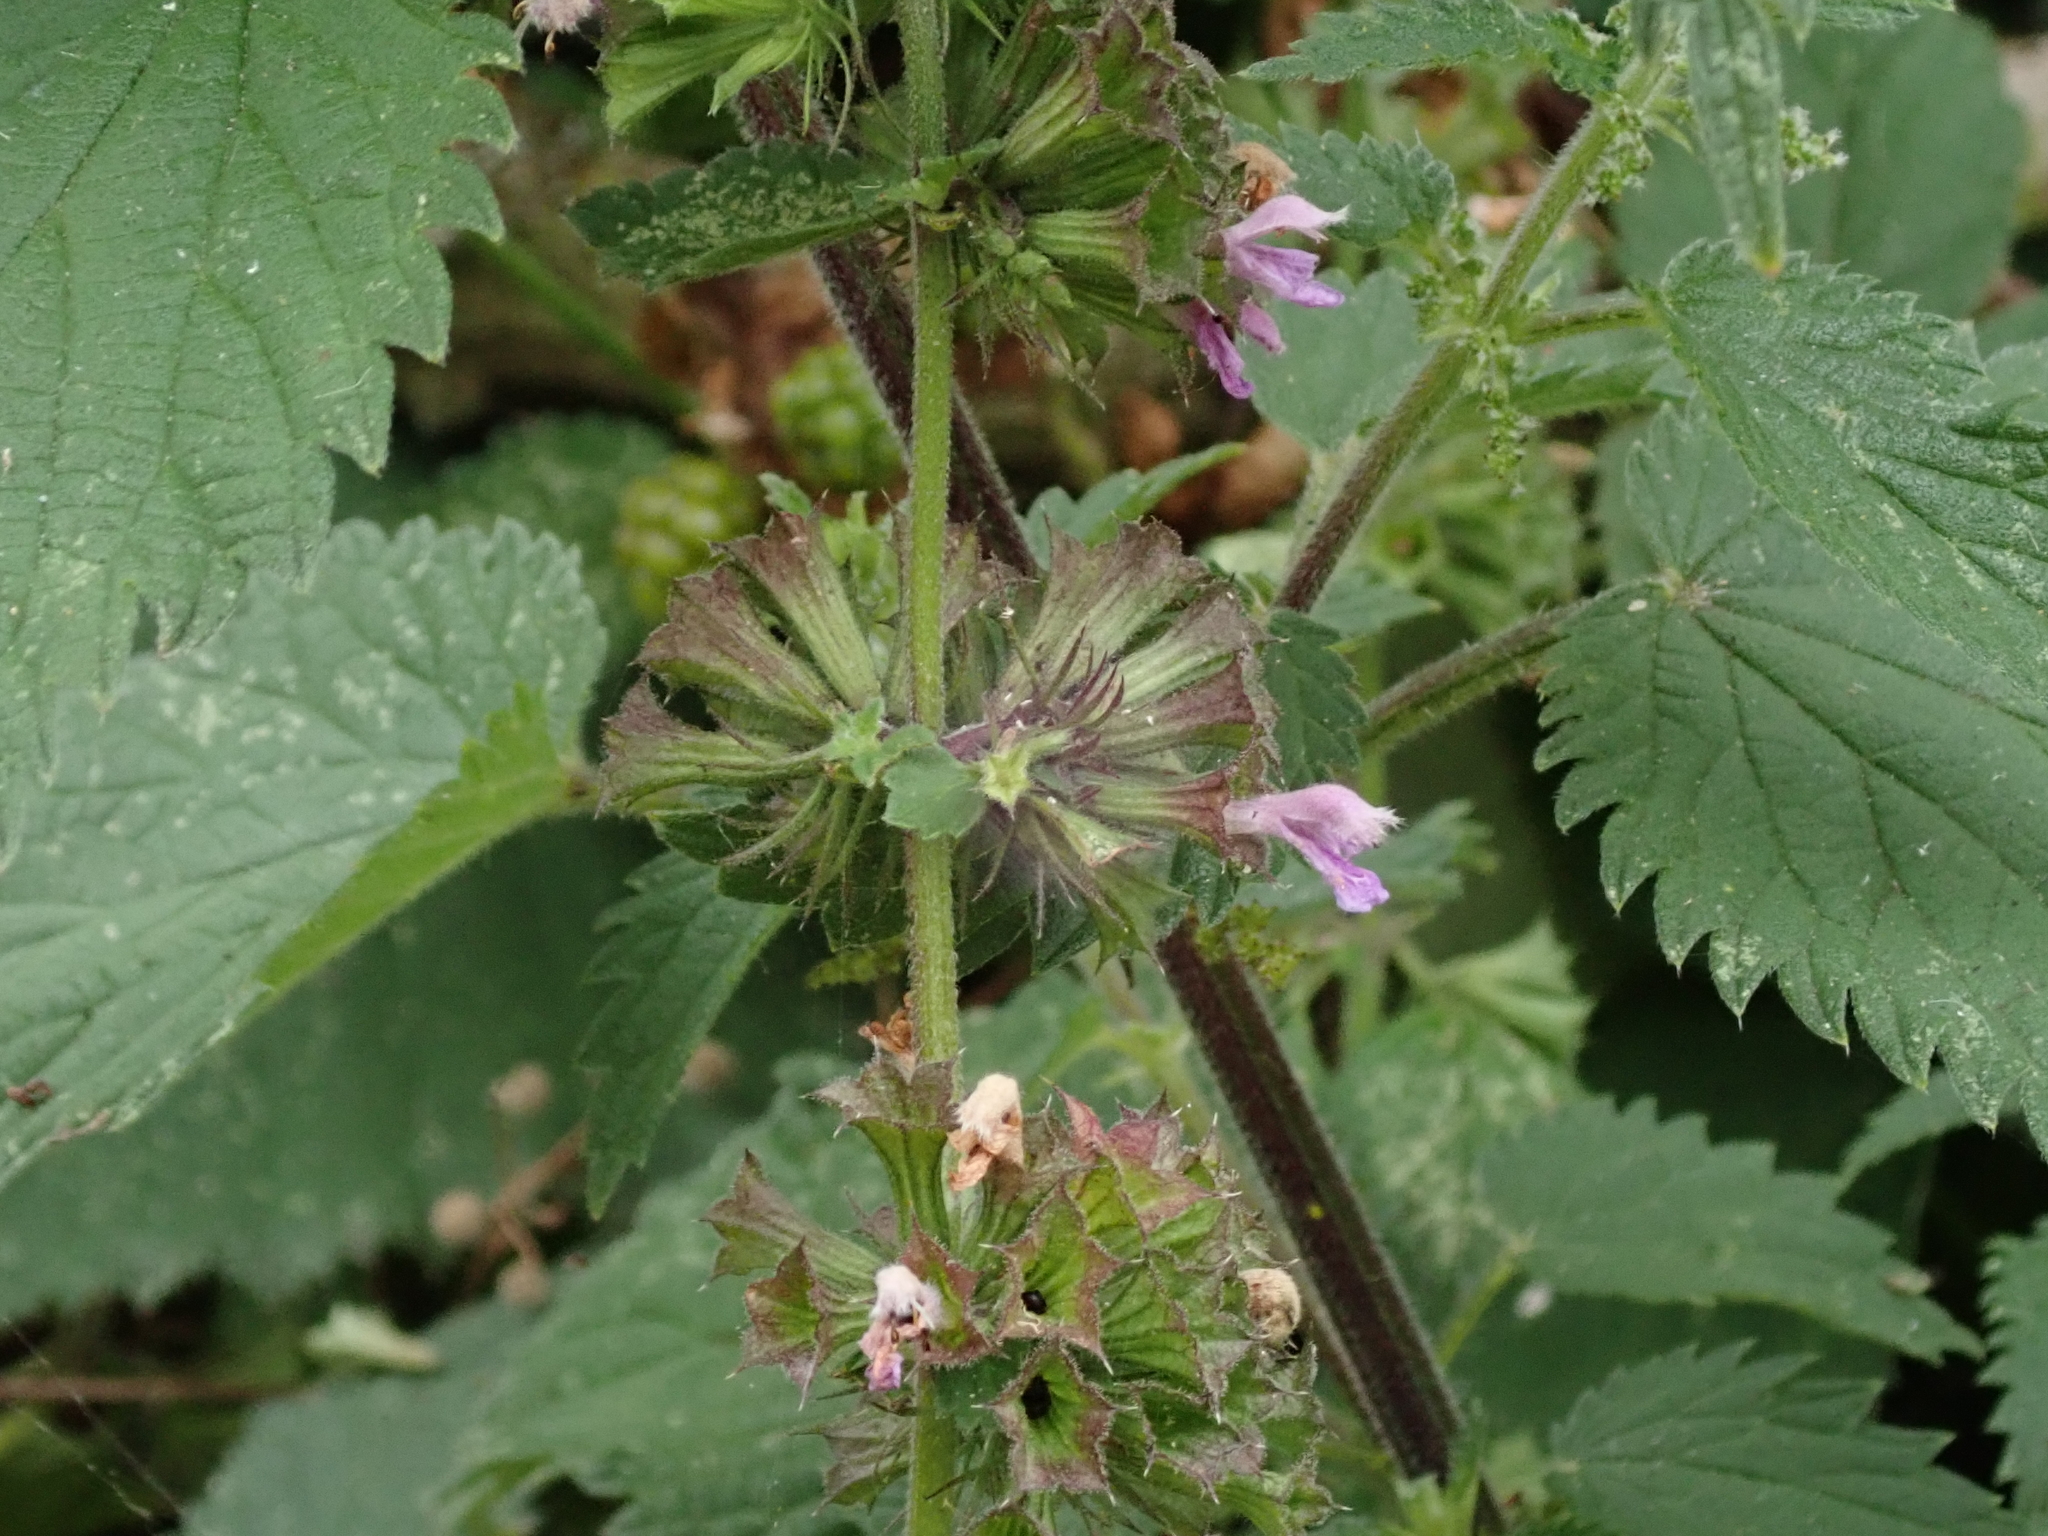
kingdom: Plantae
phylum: Tracheophyta
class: Magnoliopsida
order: Lamiales
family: Lamiaceae
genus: Ballota
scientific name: Ballota nigra
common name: Black horehound
